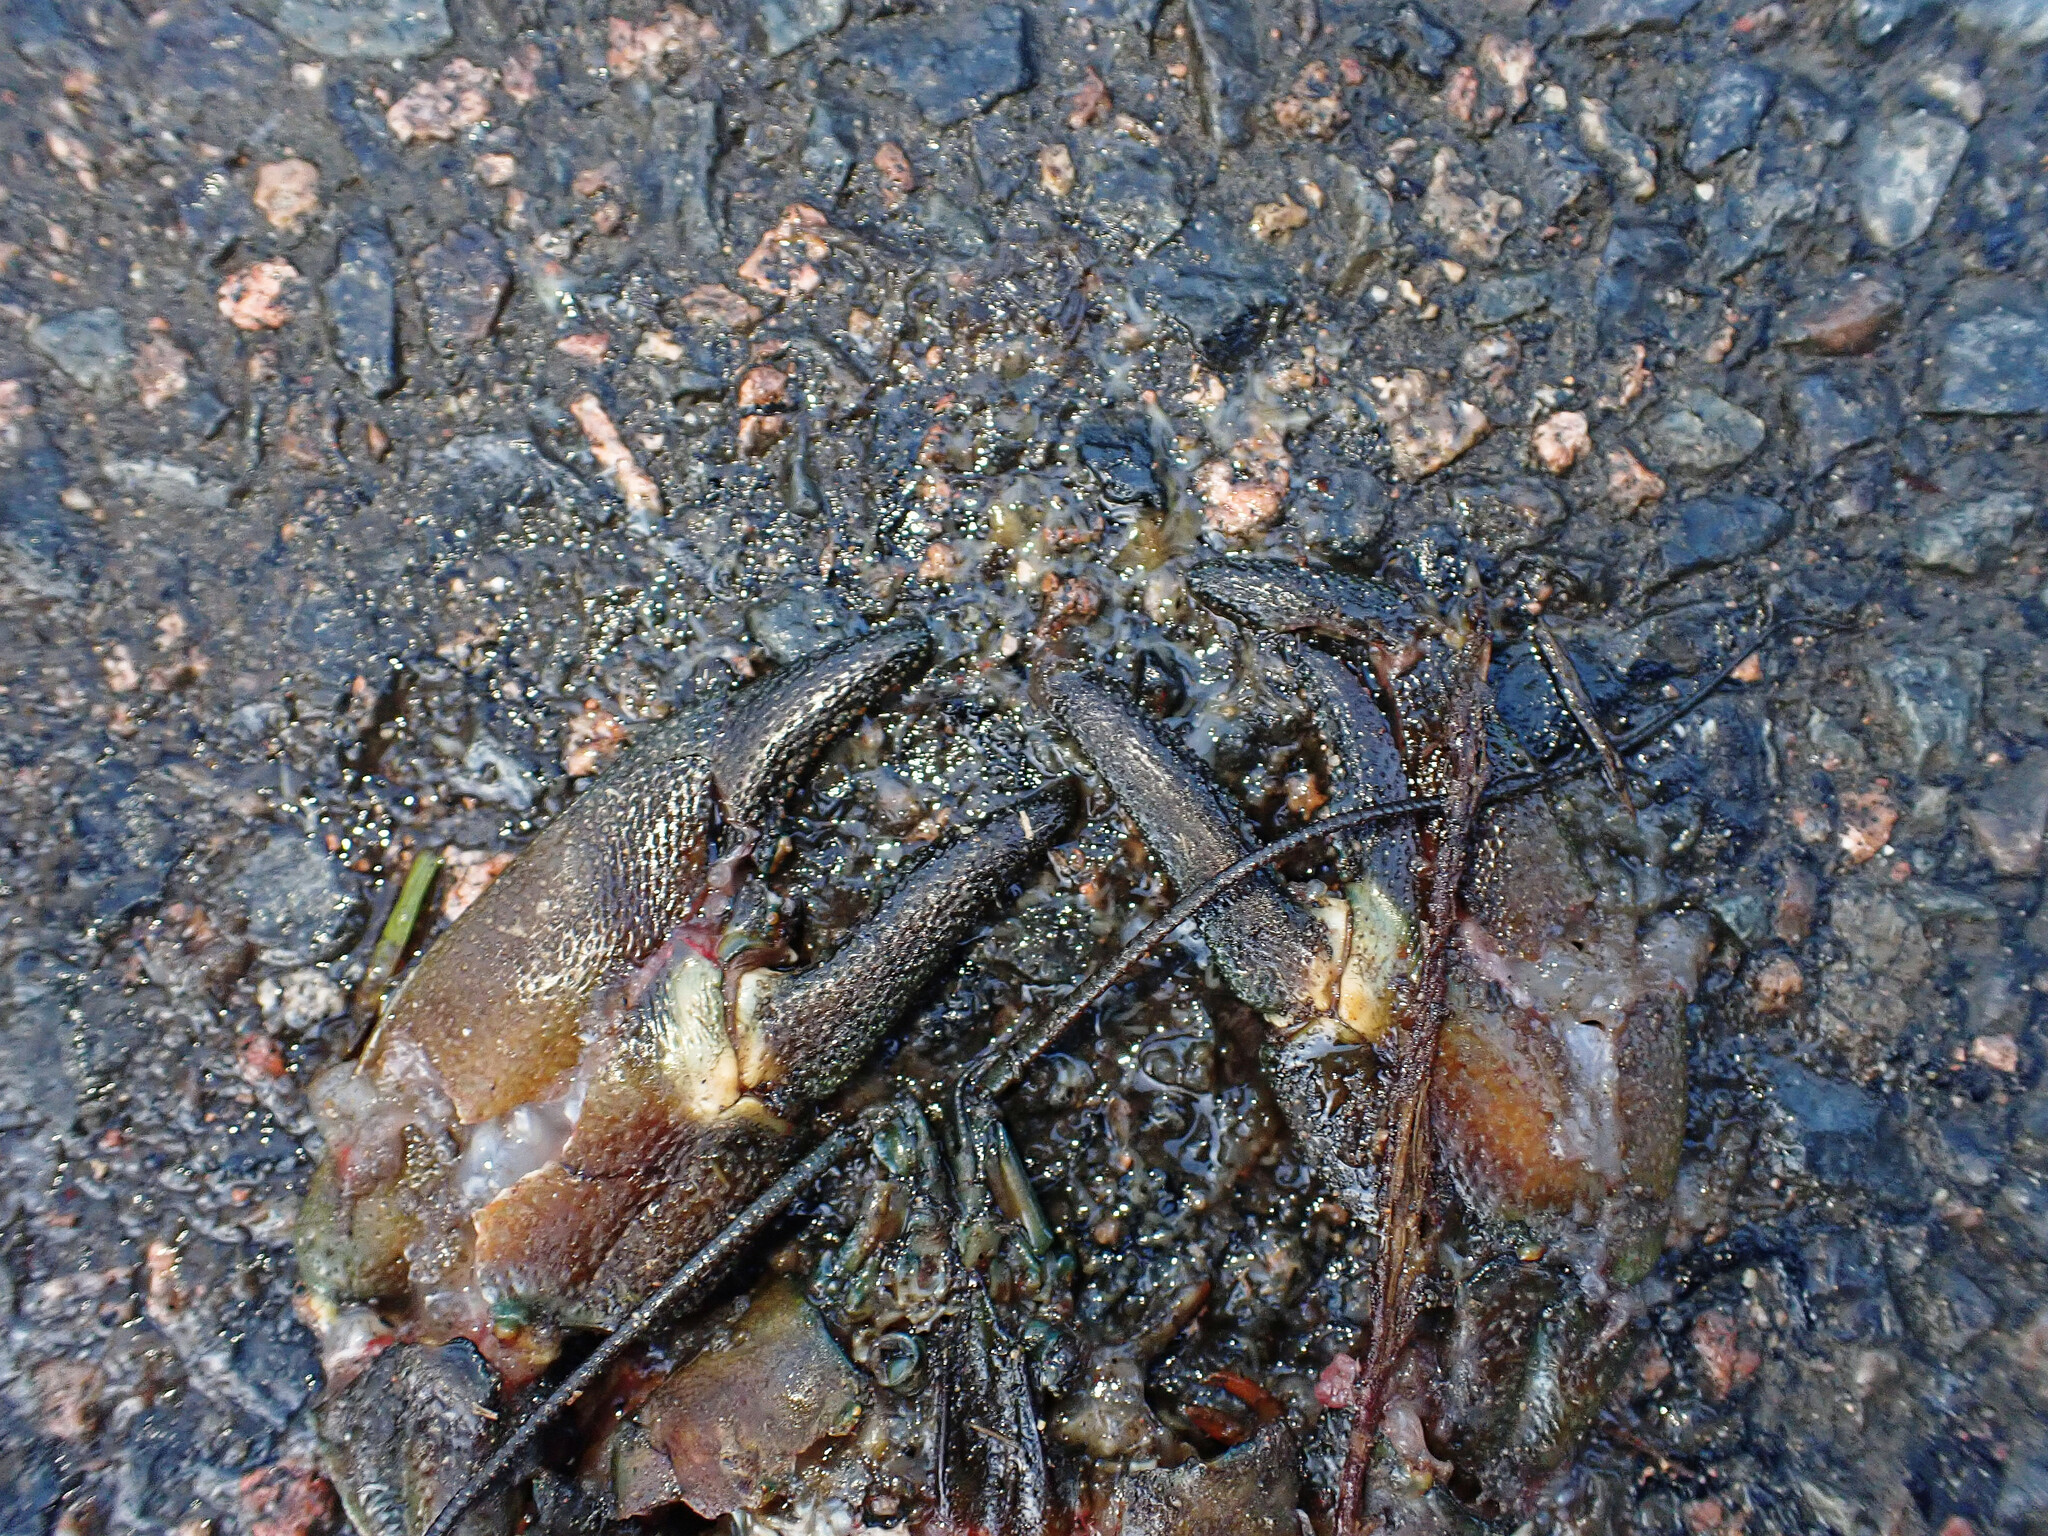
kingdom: Animalia
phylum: Arthropoda
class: Malacostraca
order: Decapoda
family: Astacidae
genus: Pacifastacus
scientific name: Pacifastacus leniusculus
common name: Signal crayfish
